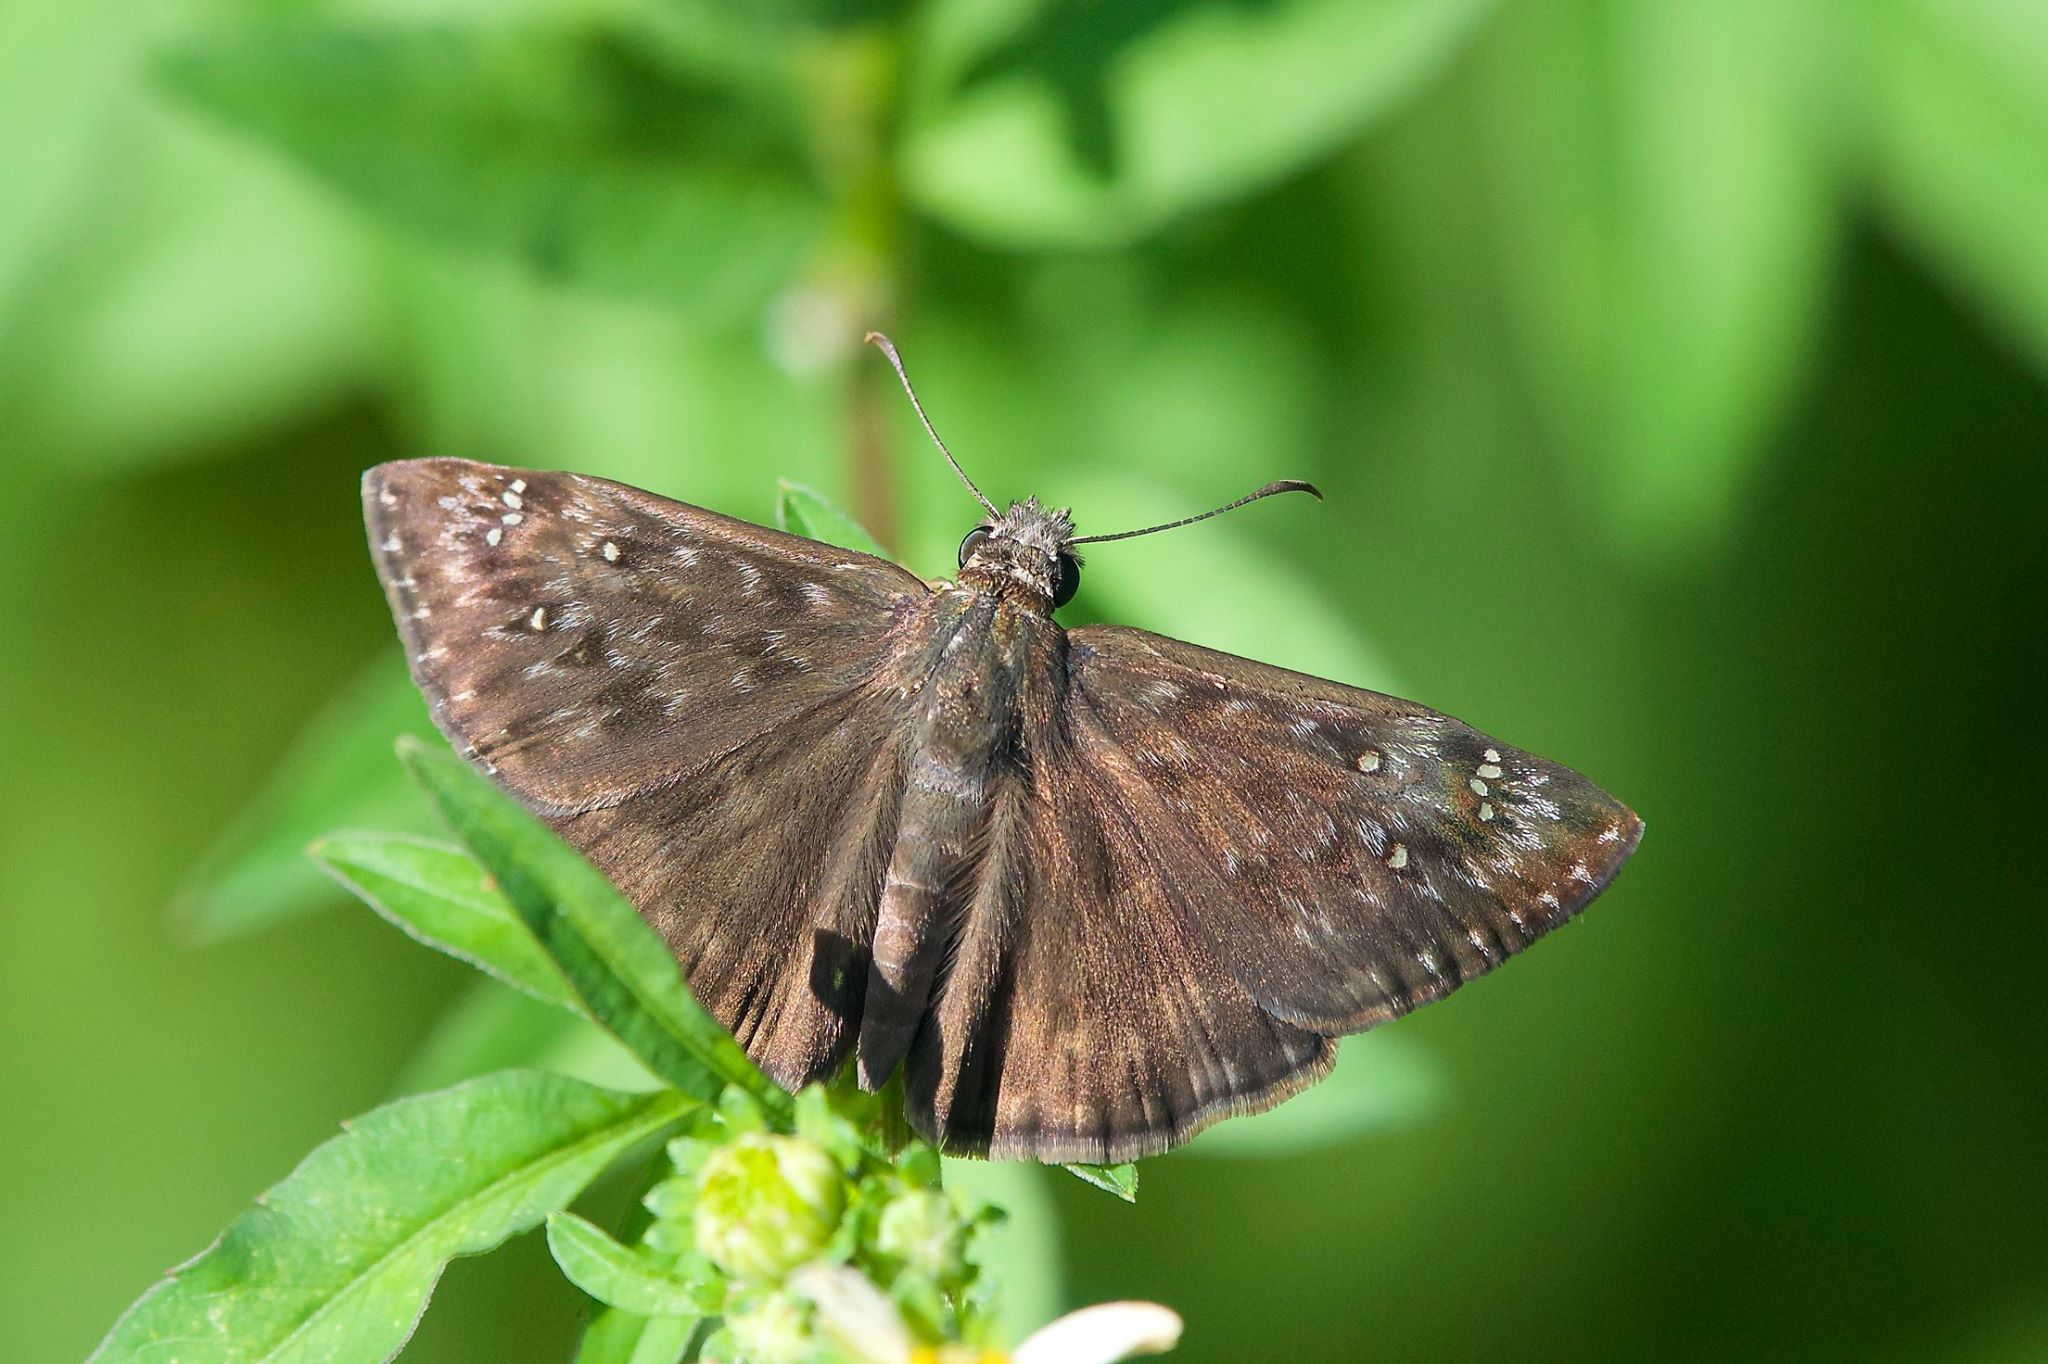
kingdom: Animalia
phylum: Arthropoda
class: Insecta
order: Lepidoptera
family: Hesperiidae
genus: Erynnis
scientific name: Erynnis horatius
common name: Horace's duskywing
